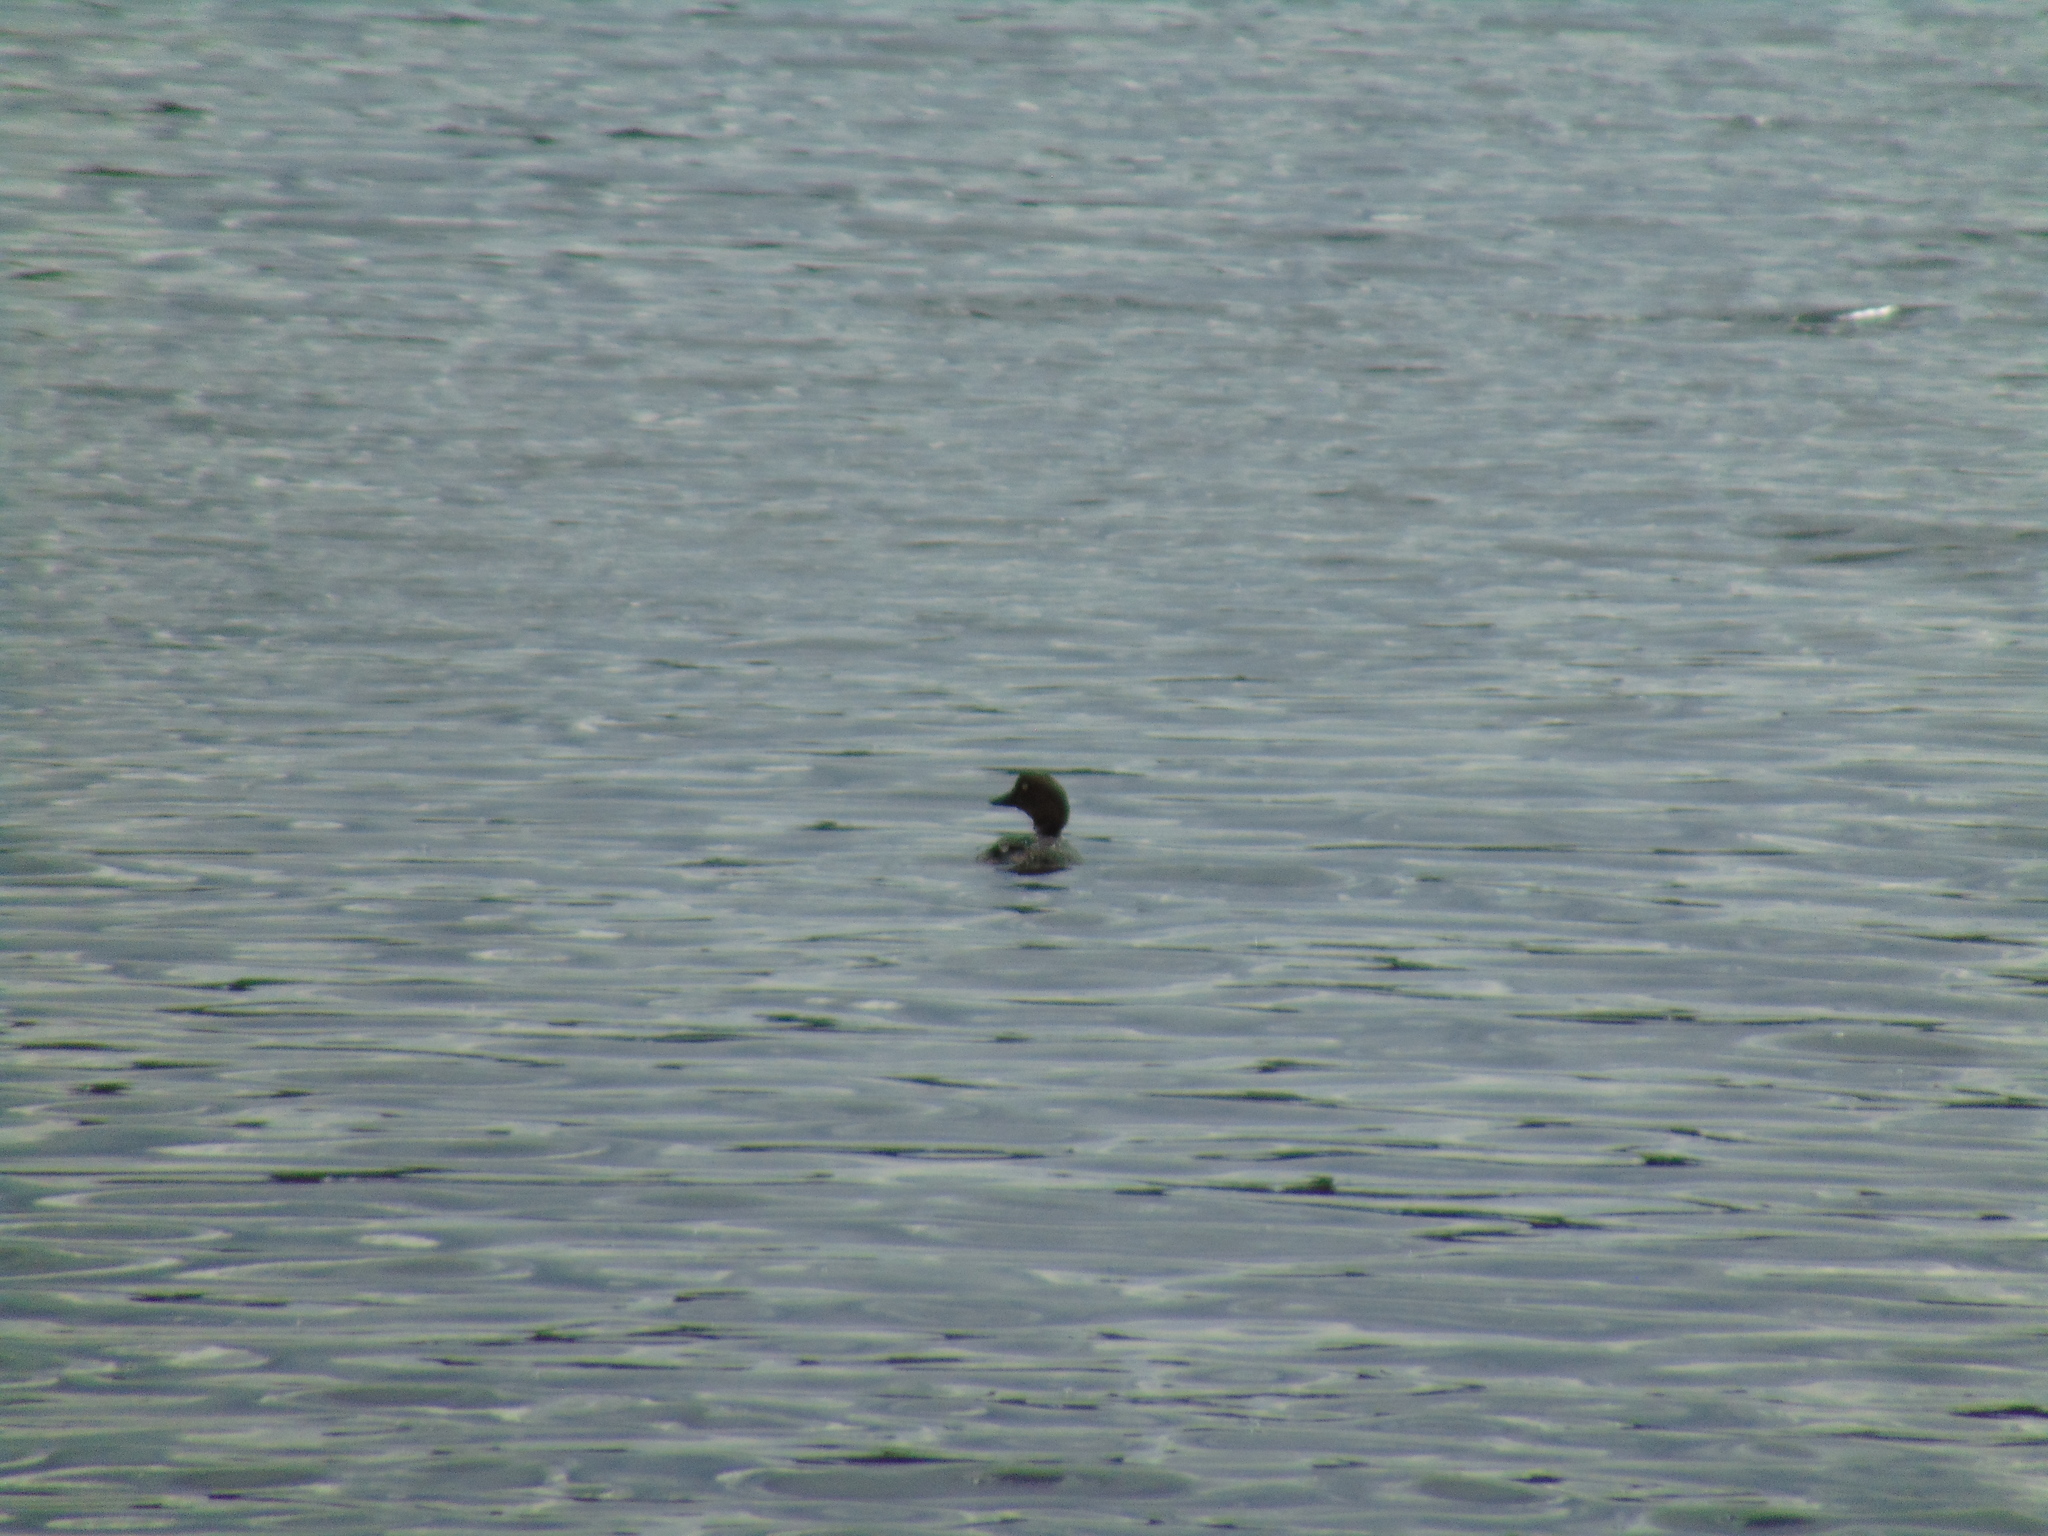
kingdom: Animalia
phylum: Chordata
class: Aves
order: Anseriformes
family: Anatidae
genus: Bucephala
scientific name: Bucephala clangula
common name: Common goldeneye
